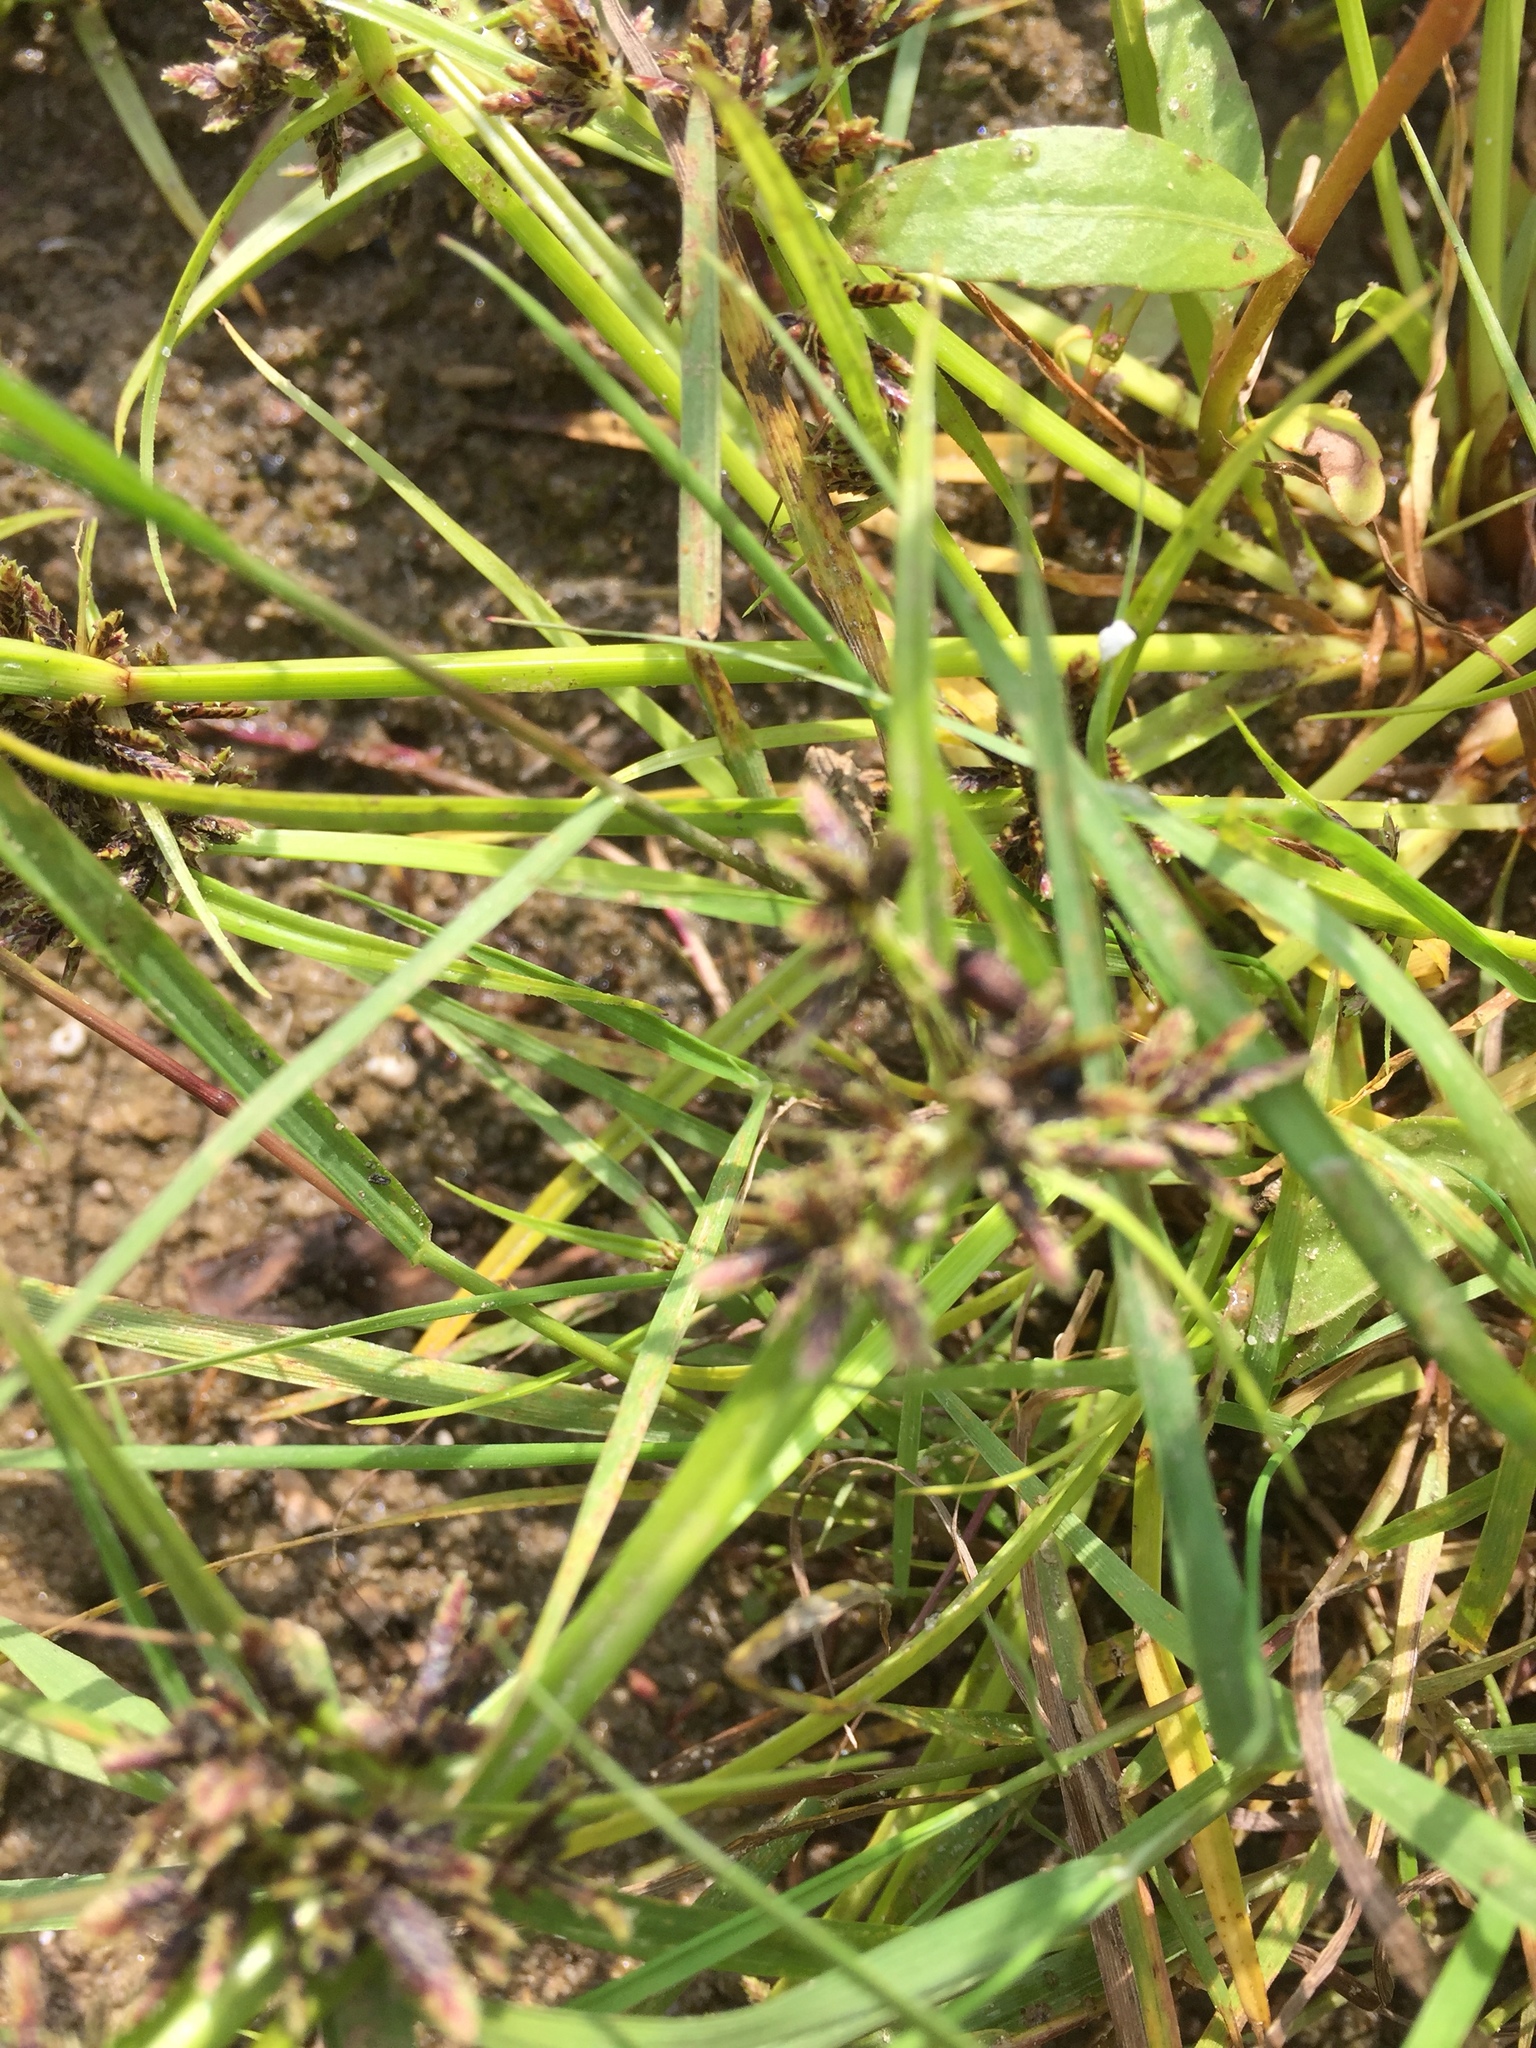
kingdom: Plantae
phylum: Tracheophyta
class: Liliopsida
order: Poales
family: Cyperaceae
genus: Cyperus
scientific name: Cyperus fuscus
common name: Brown galingale
